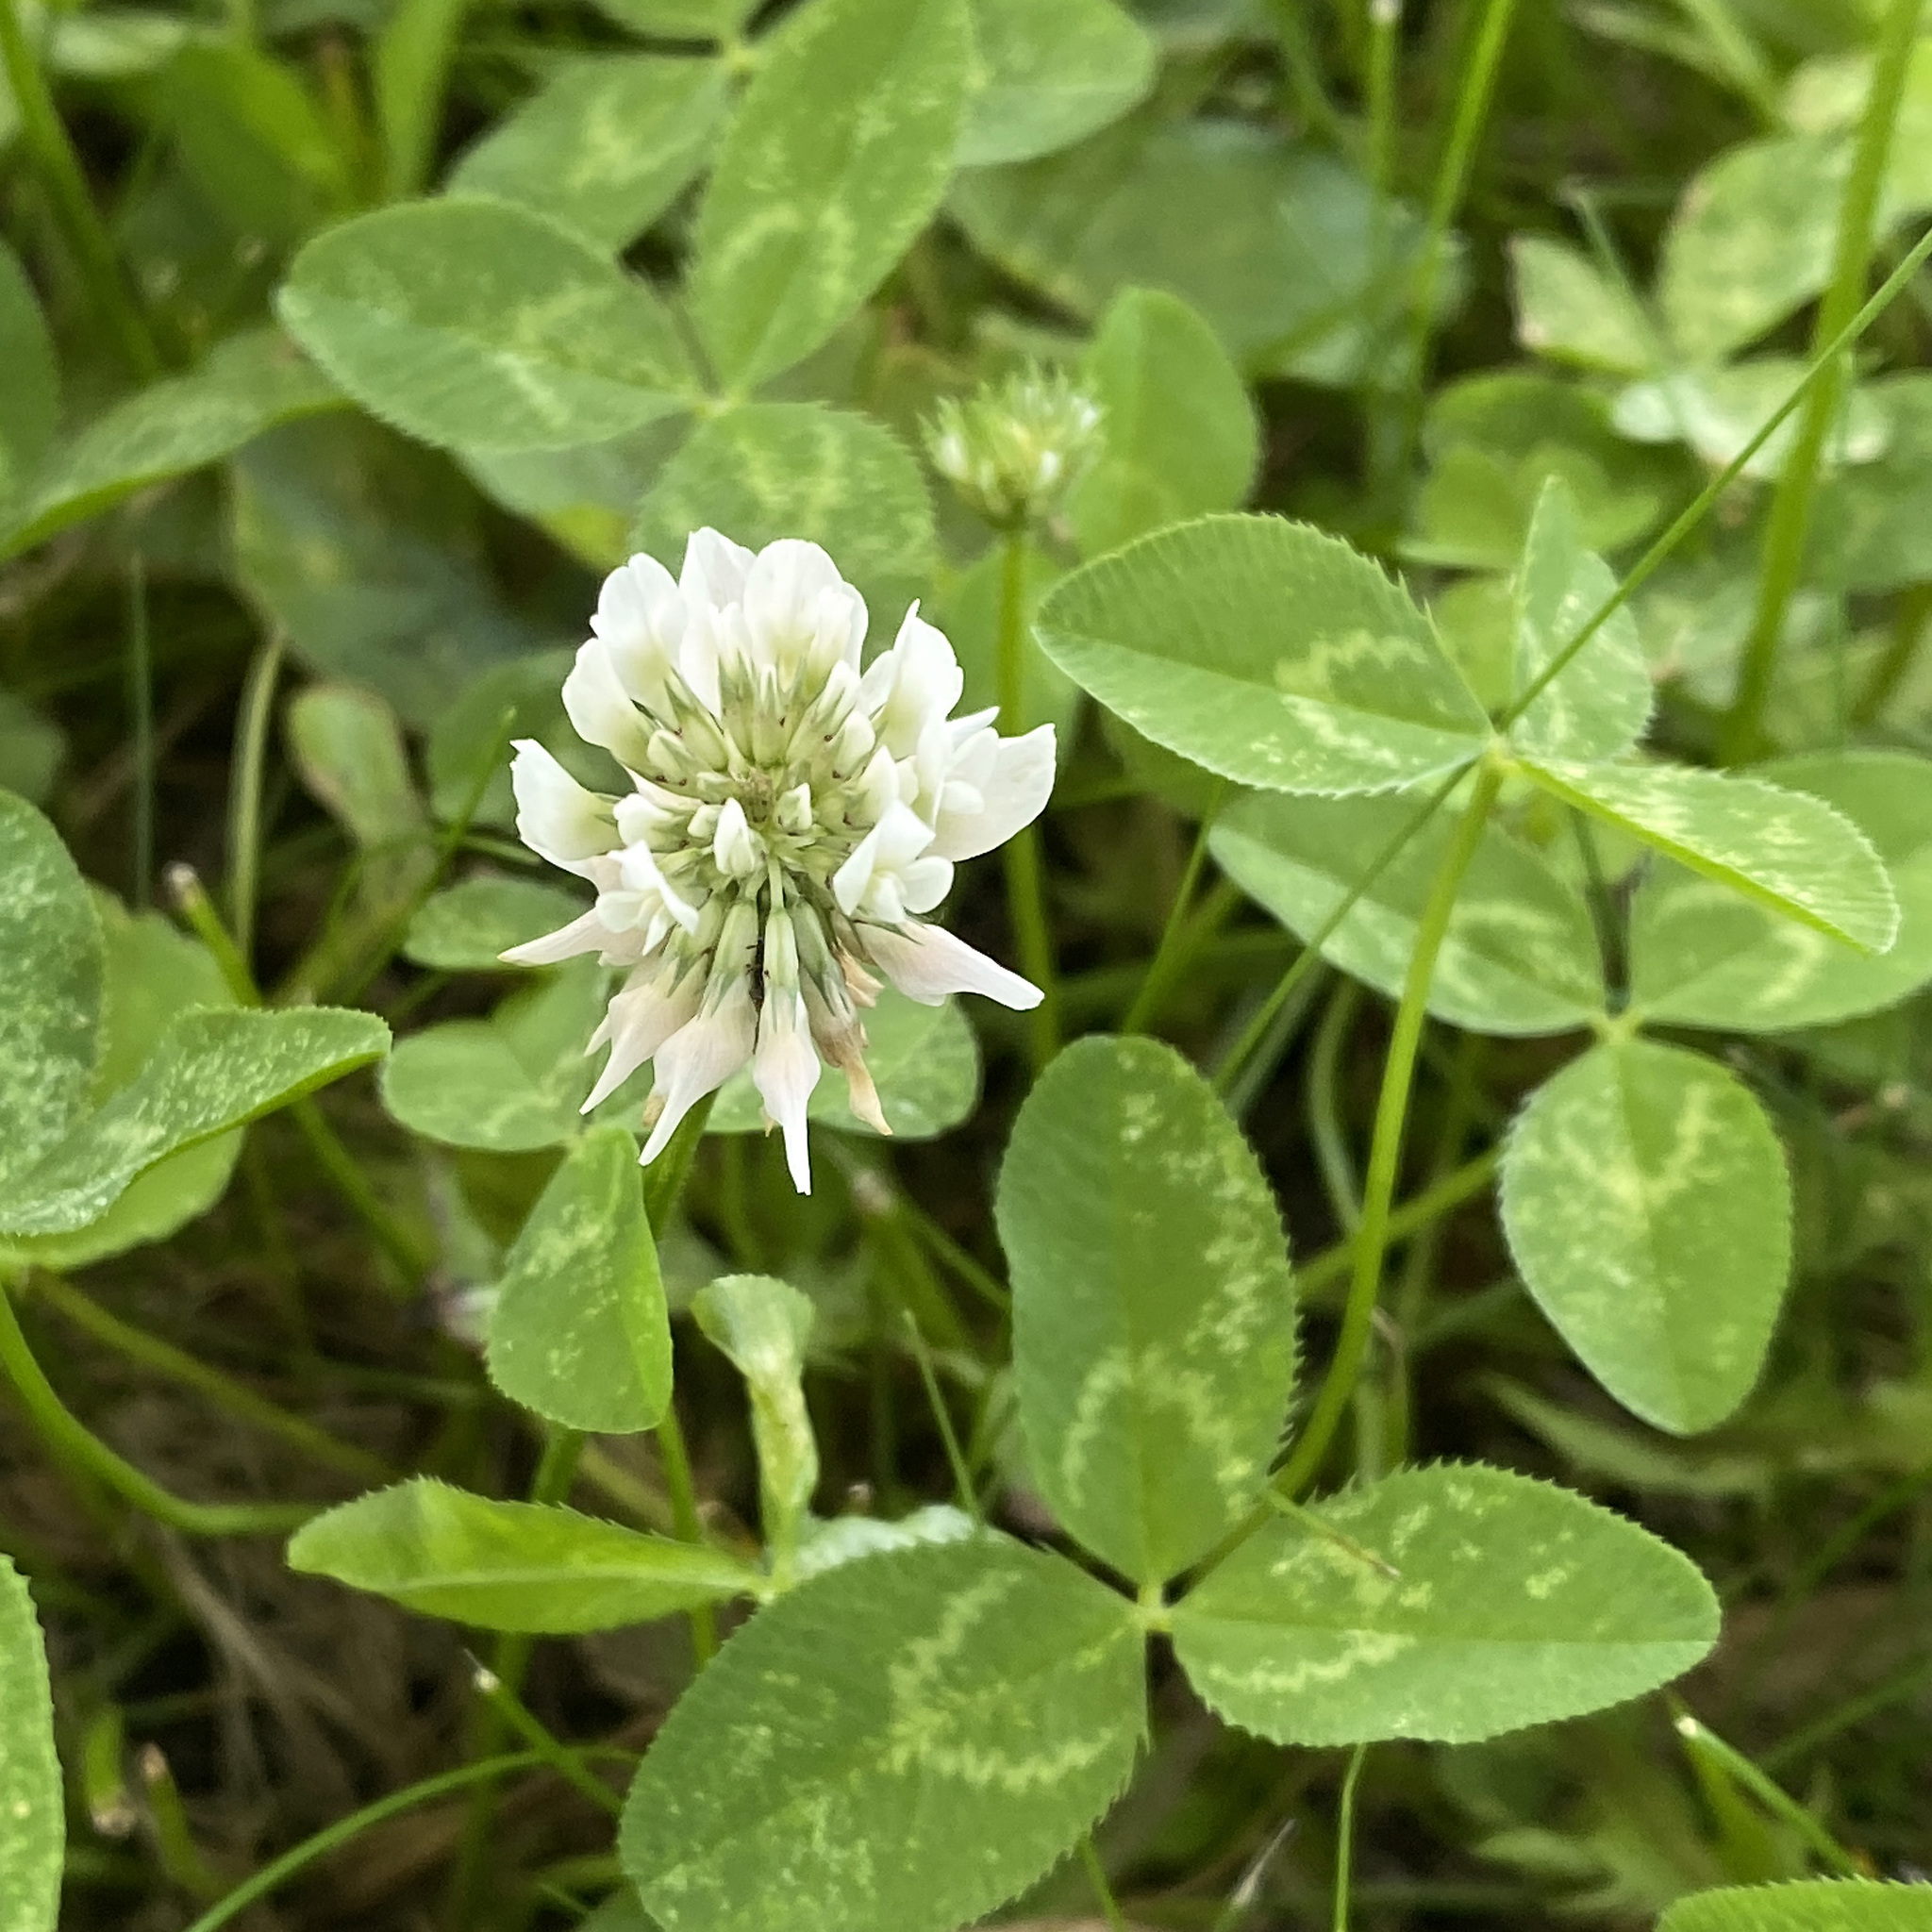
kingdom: Plantae
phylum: Tracheophyta
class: Magnoliopsida
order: Fabales
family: Fabaceae
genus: Trifolium
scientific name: Trifolium repens
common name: White clover
